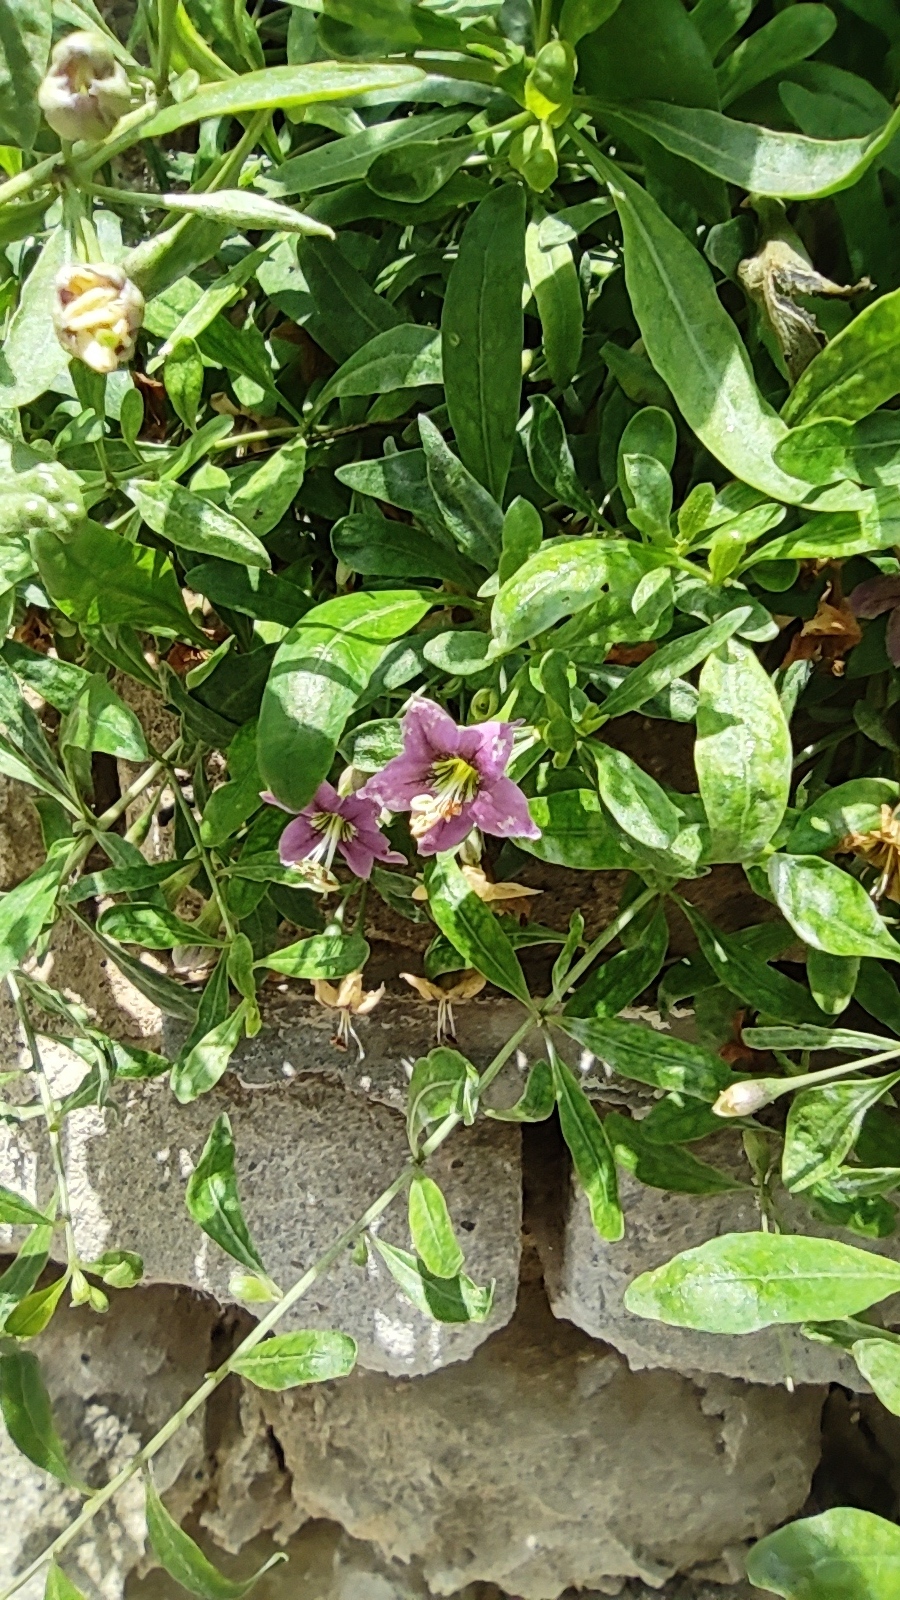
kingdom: Plantae
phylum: Tracheophyta
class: Magnoliopsida
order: Solanales
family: Solanaceae
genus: Lycium
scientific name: Lycium barbarum
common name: Duke of argyll's teaplant
